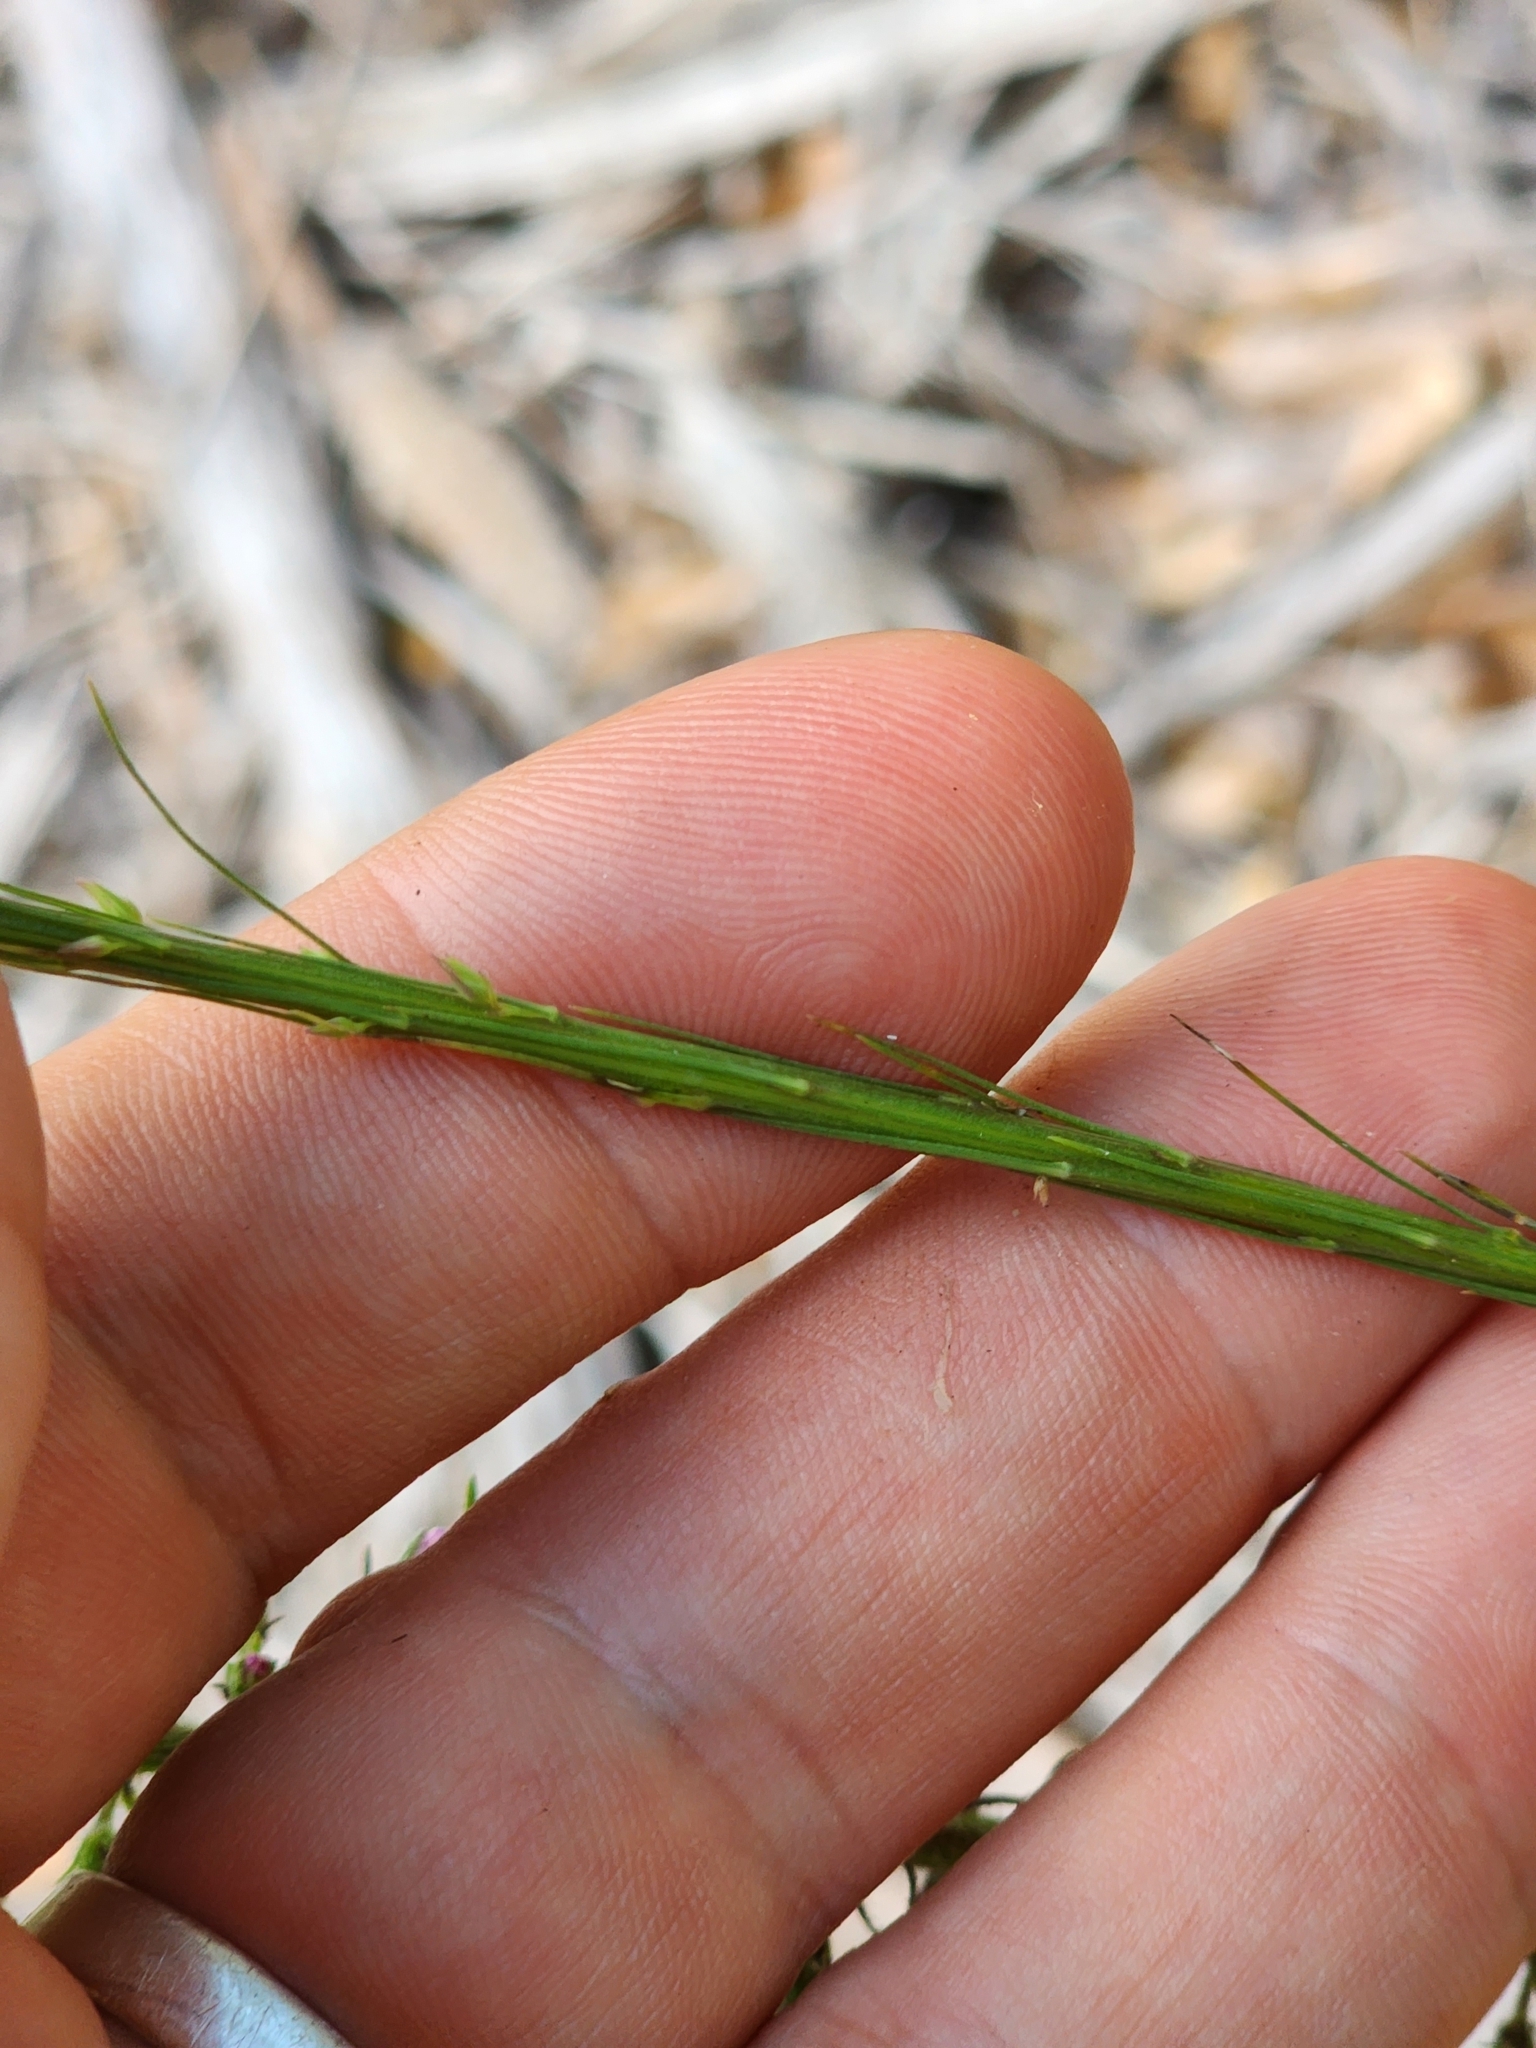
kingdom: Plantae
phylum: Tracheophyta
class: Magnoliopsida
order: Asterales
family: Asteraceae
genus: Liatris
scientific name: Liatris tenuifolia
